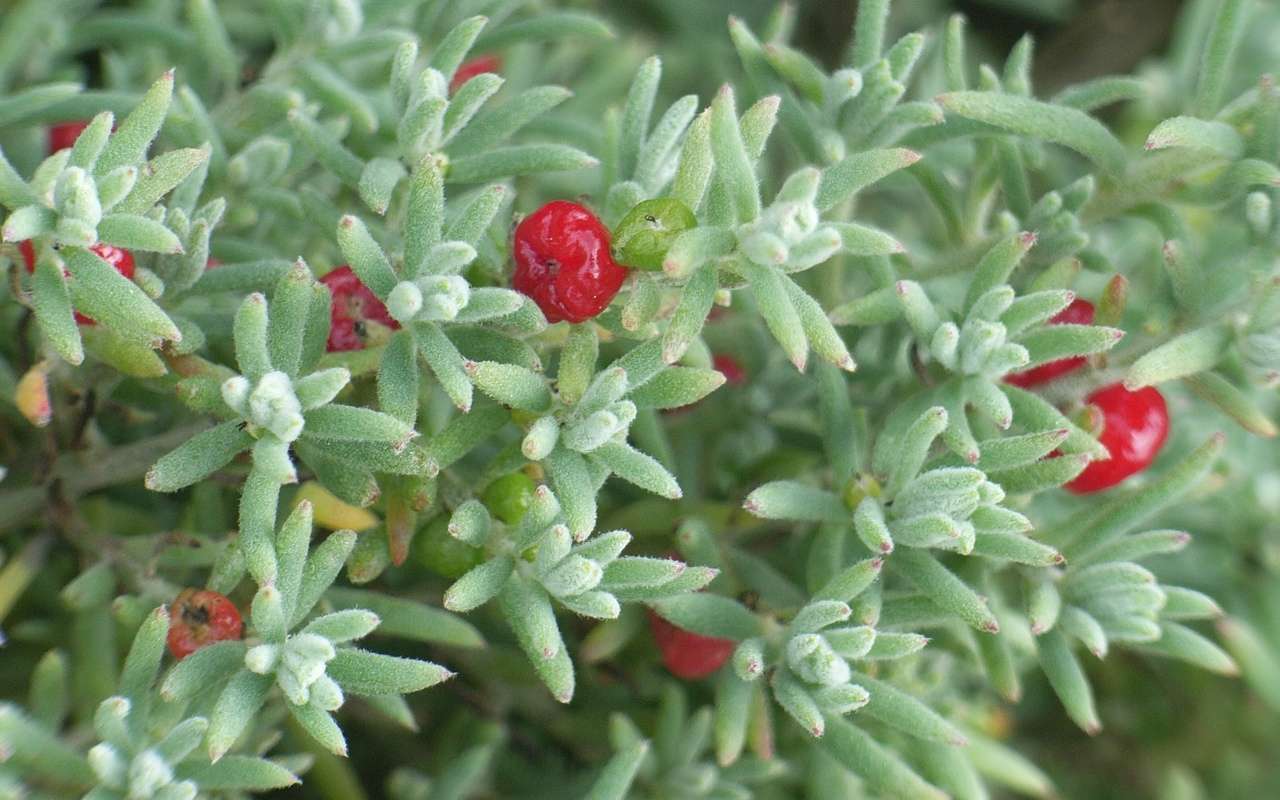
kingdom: Plantae
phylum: Tracheophyta
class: Magnoliopsida
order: Caryophyllales
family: Amaranthaceae
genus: Enchylaena
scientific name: Enchylaena tomentosa
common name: Ruby saltbush
